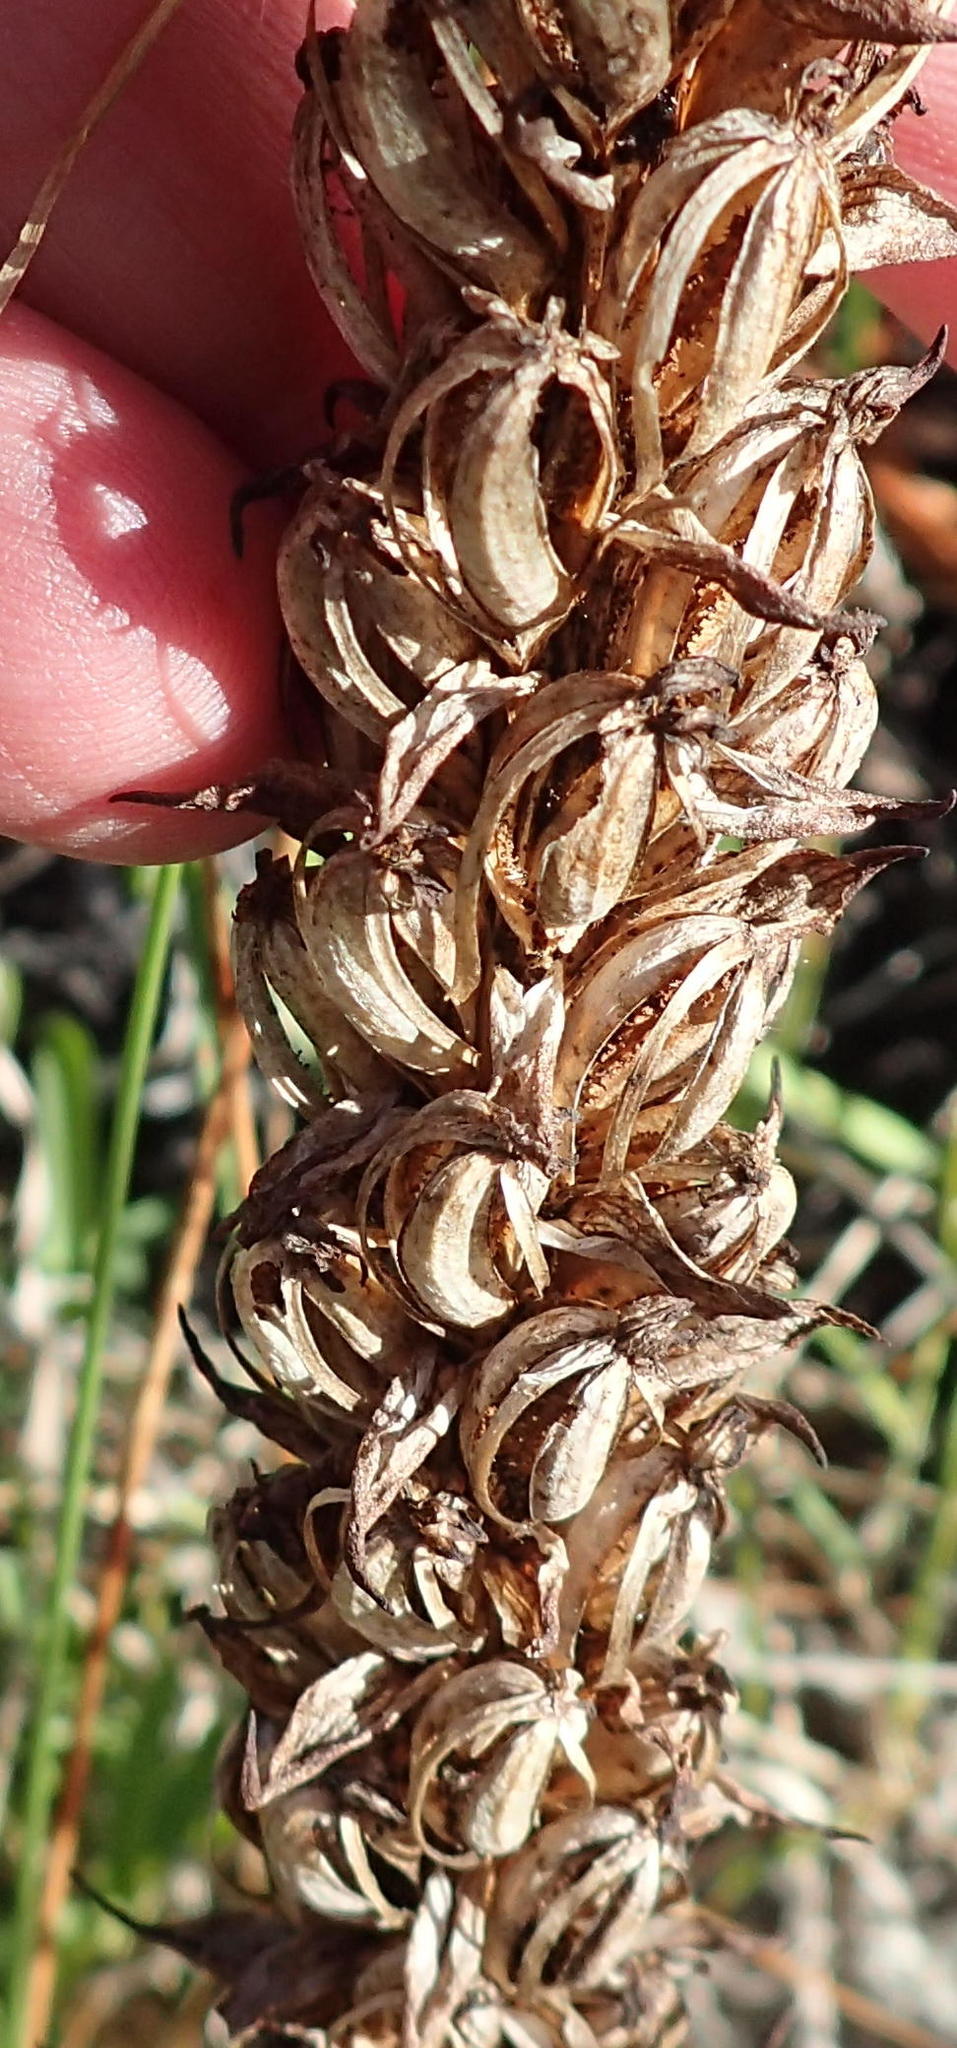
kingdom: Plantae
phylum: Tracheophyta
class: Liliopsida
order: Asparagales
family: Orchidaceae
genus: Evotella
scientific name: Evotella carnosa
